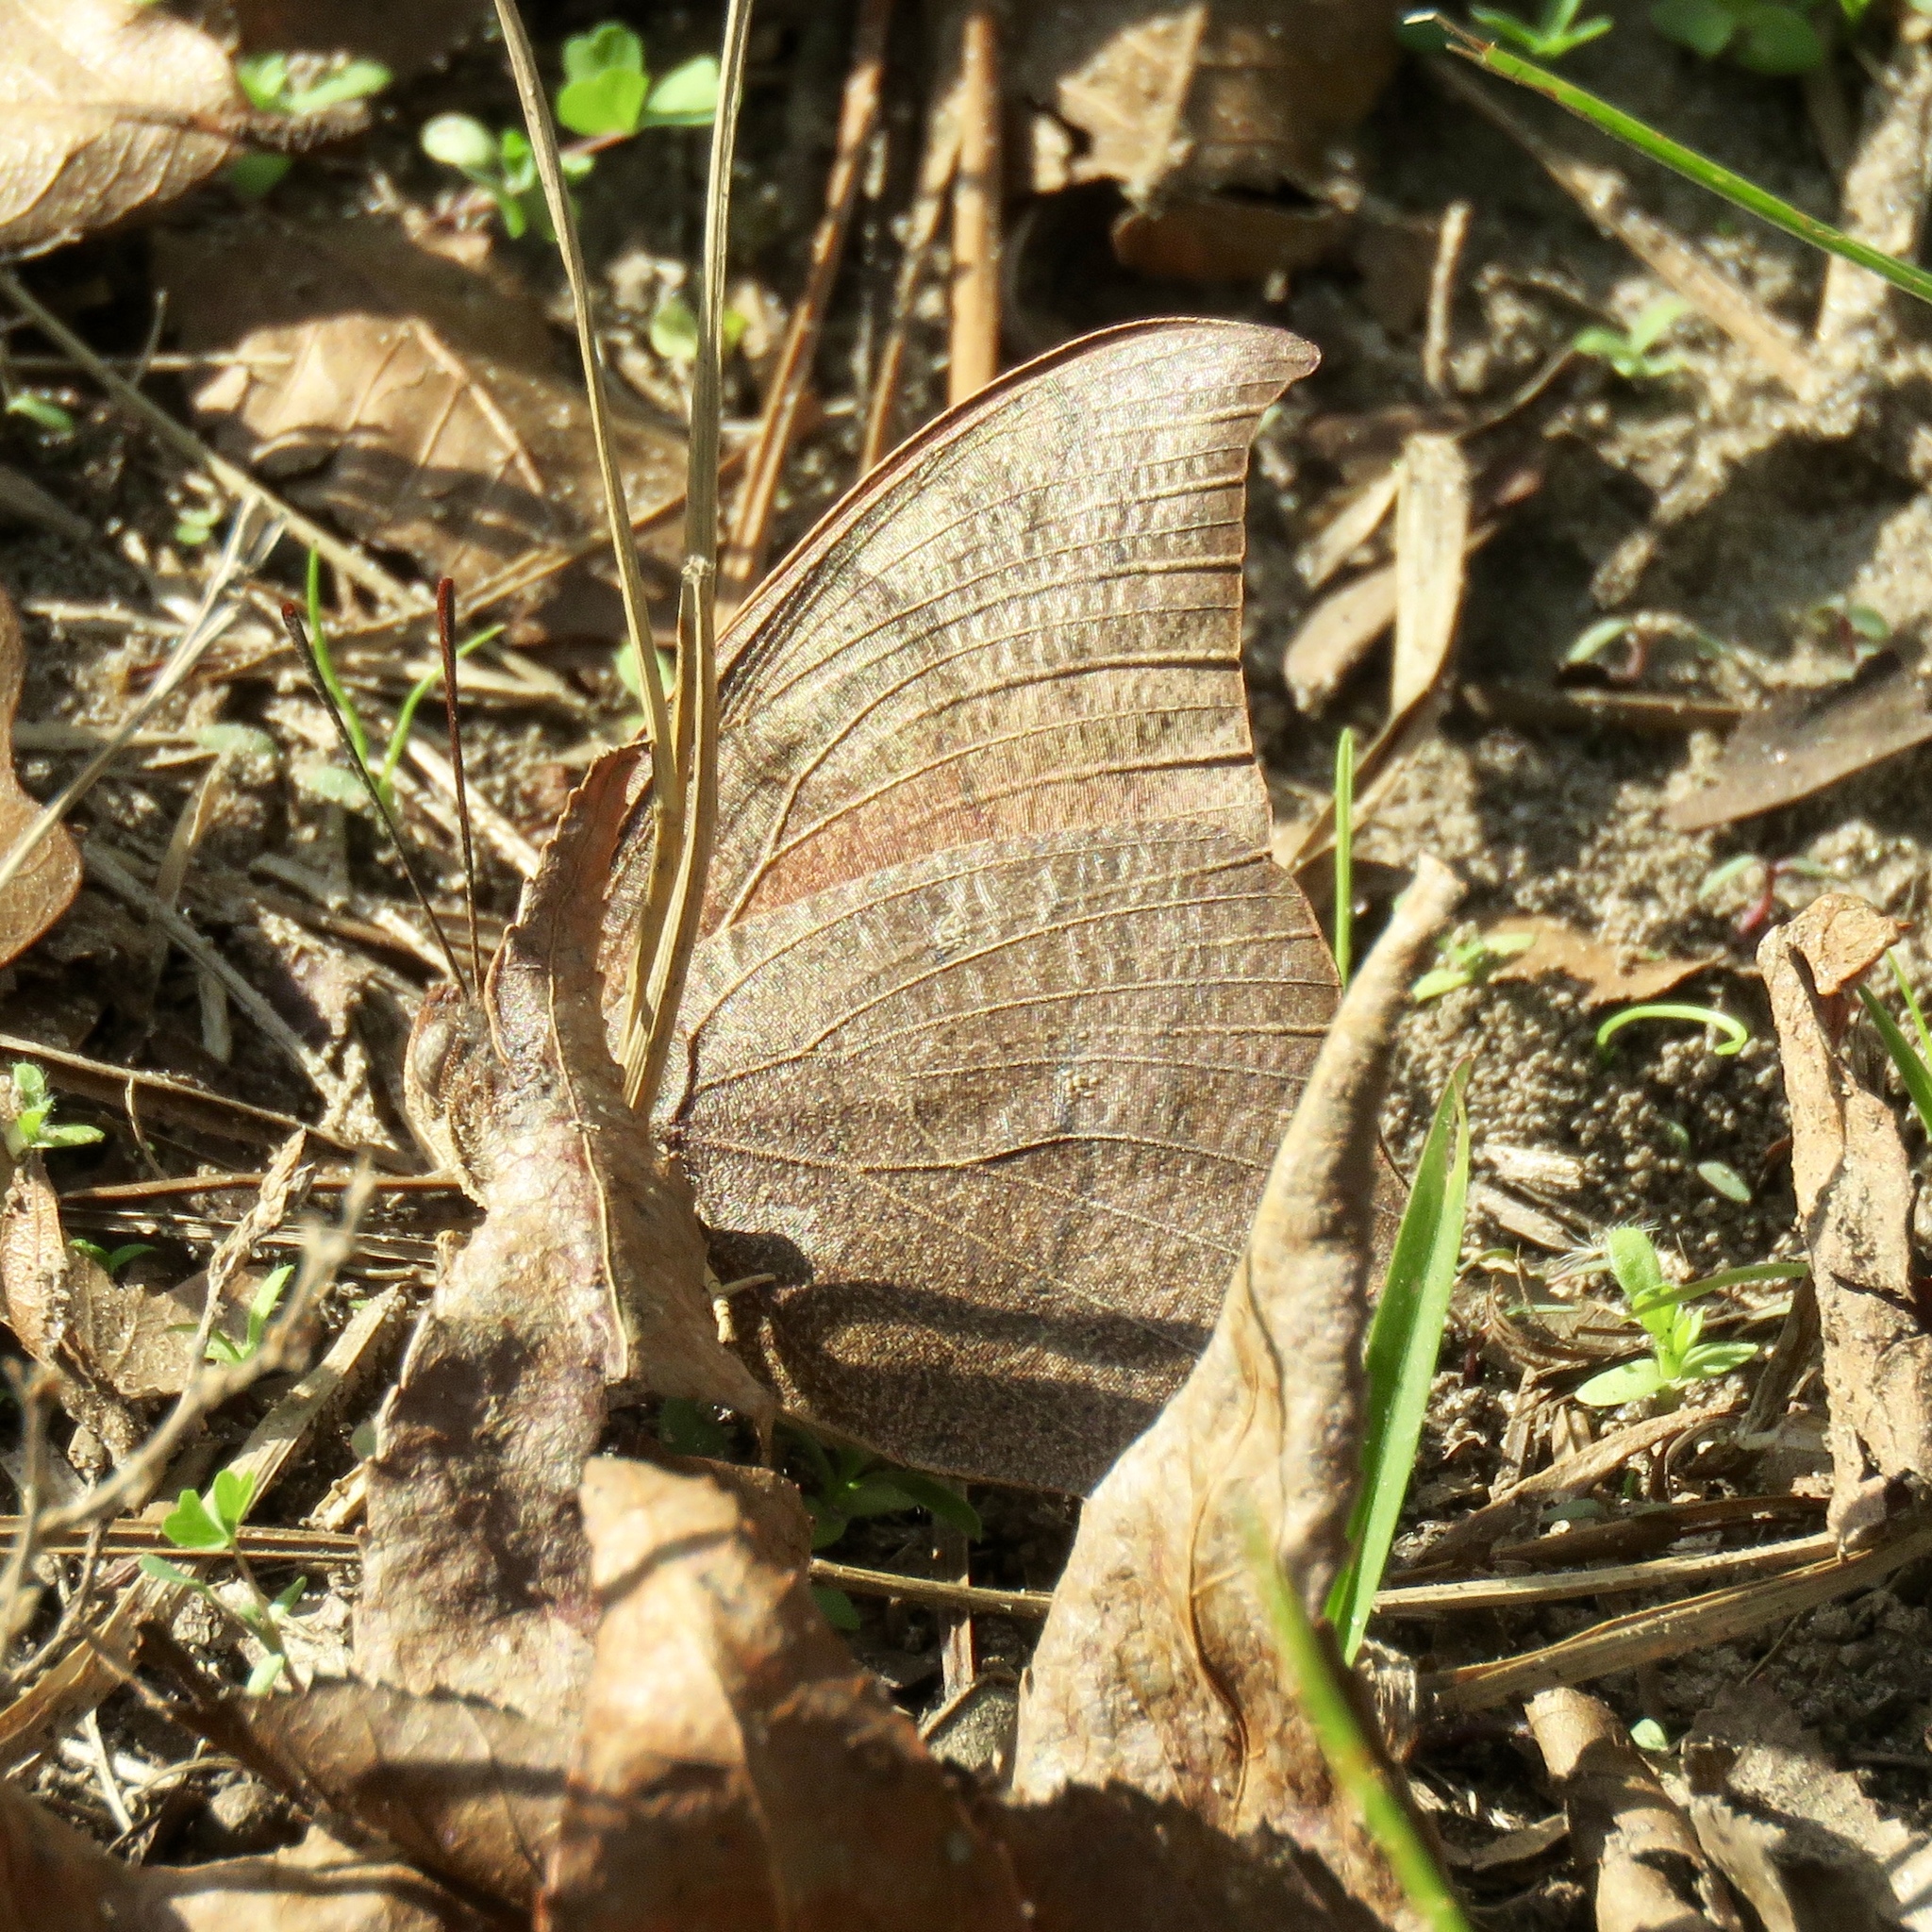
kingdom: Animalia
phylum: Arthropoda
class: Insecta
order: Lepidoptera
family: Nymphalidae
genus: Anaea
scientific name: Anaea andria
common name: Goatweed leafwing
